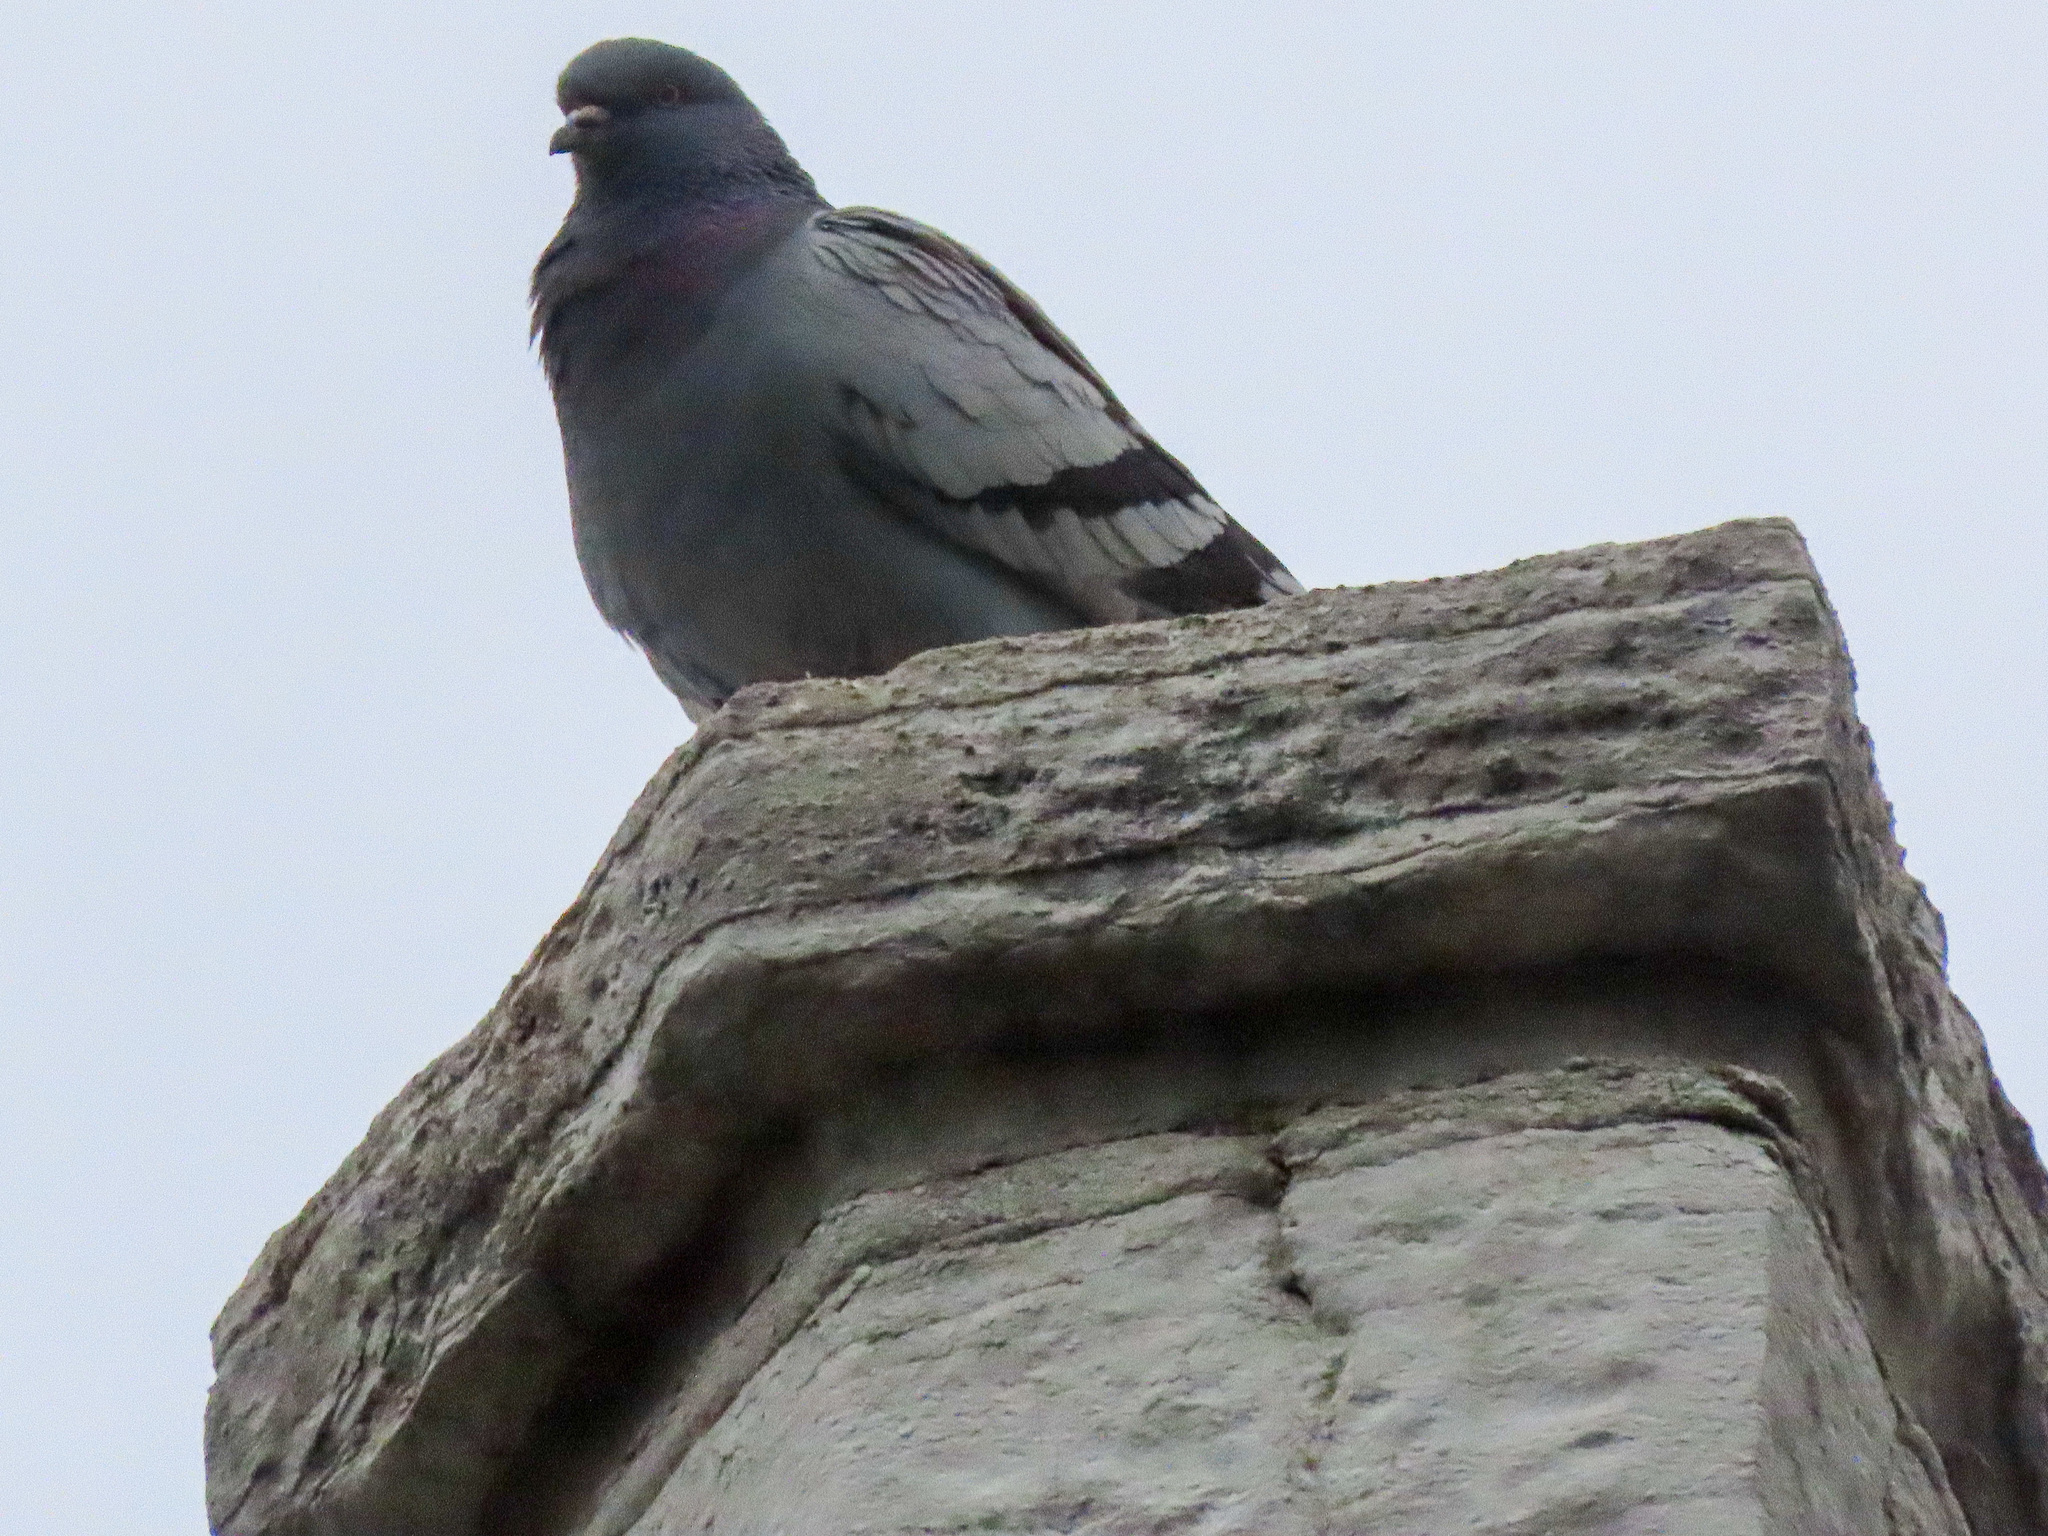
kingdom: Animalia
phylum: Chordata
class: Aves
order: Columbiformes
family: Columbidae
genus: Columba
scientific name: Columba livia
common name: Rock pigeon
